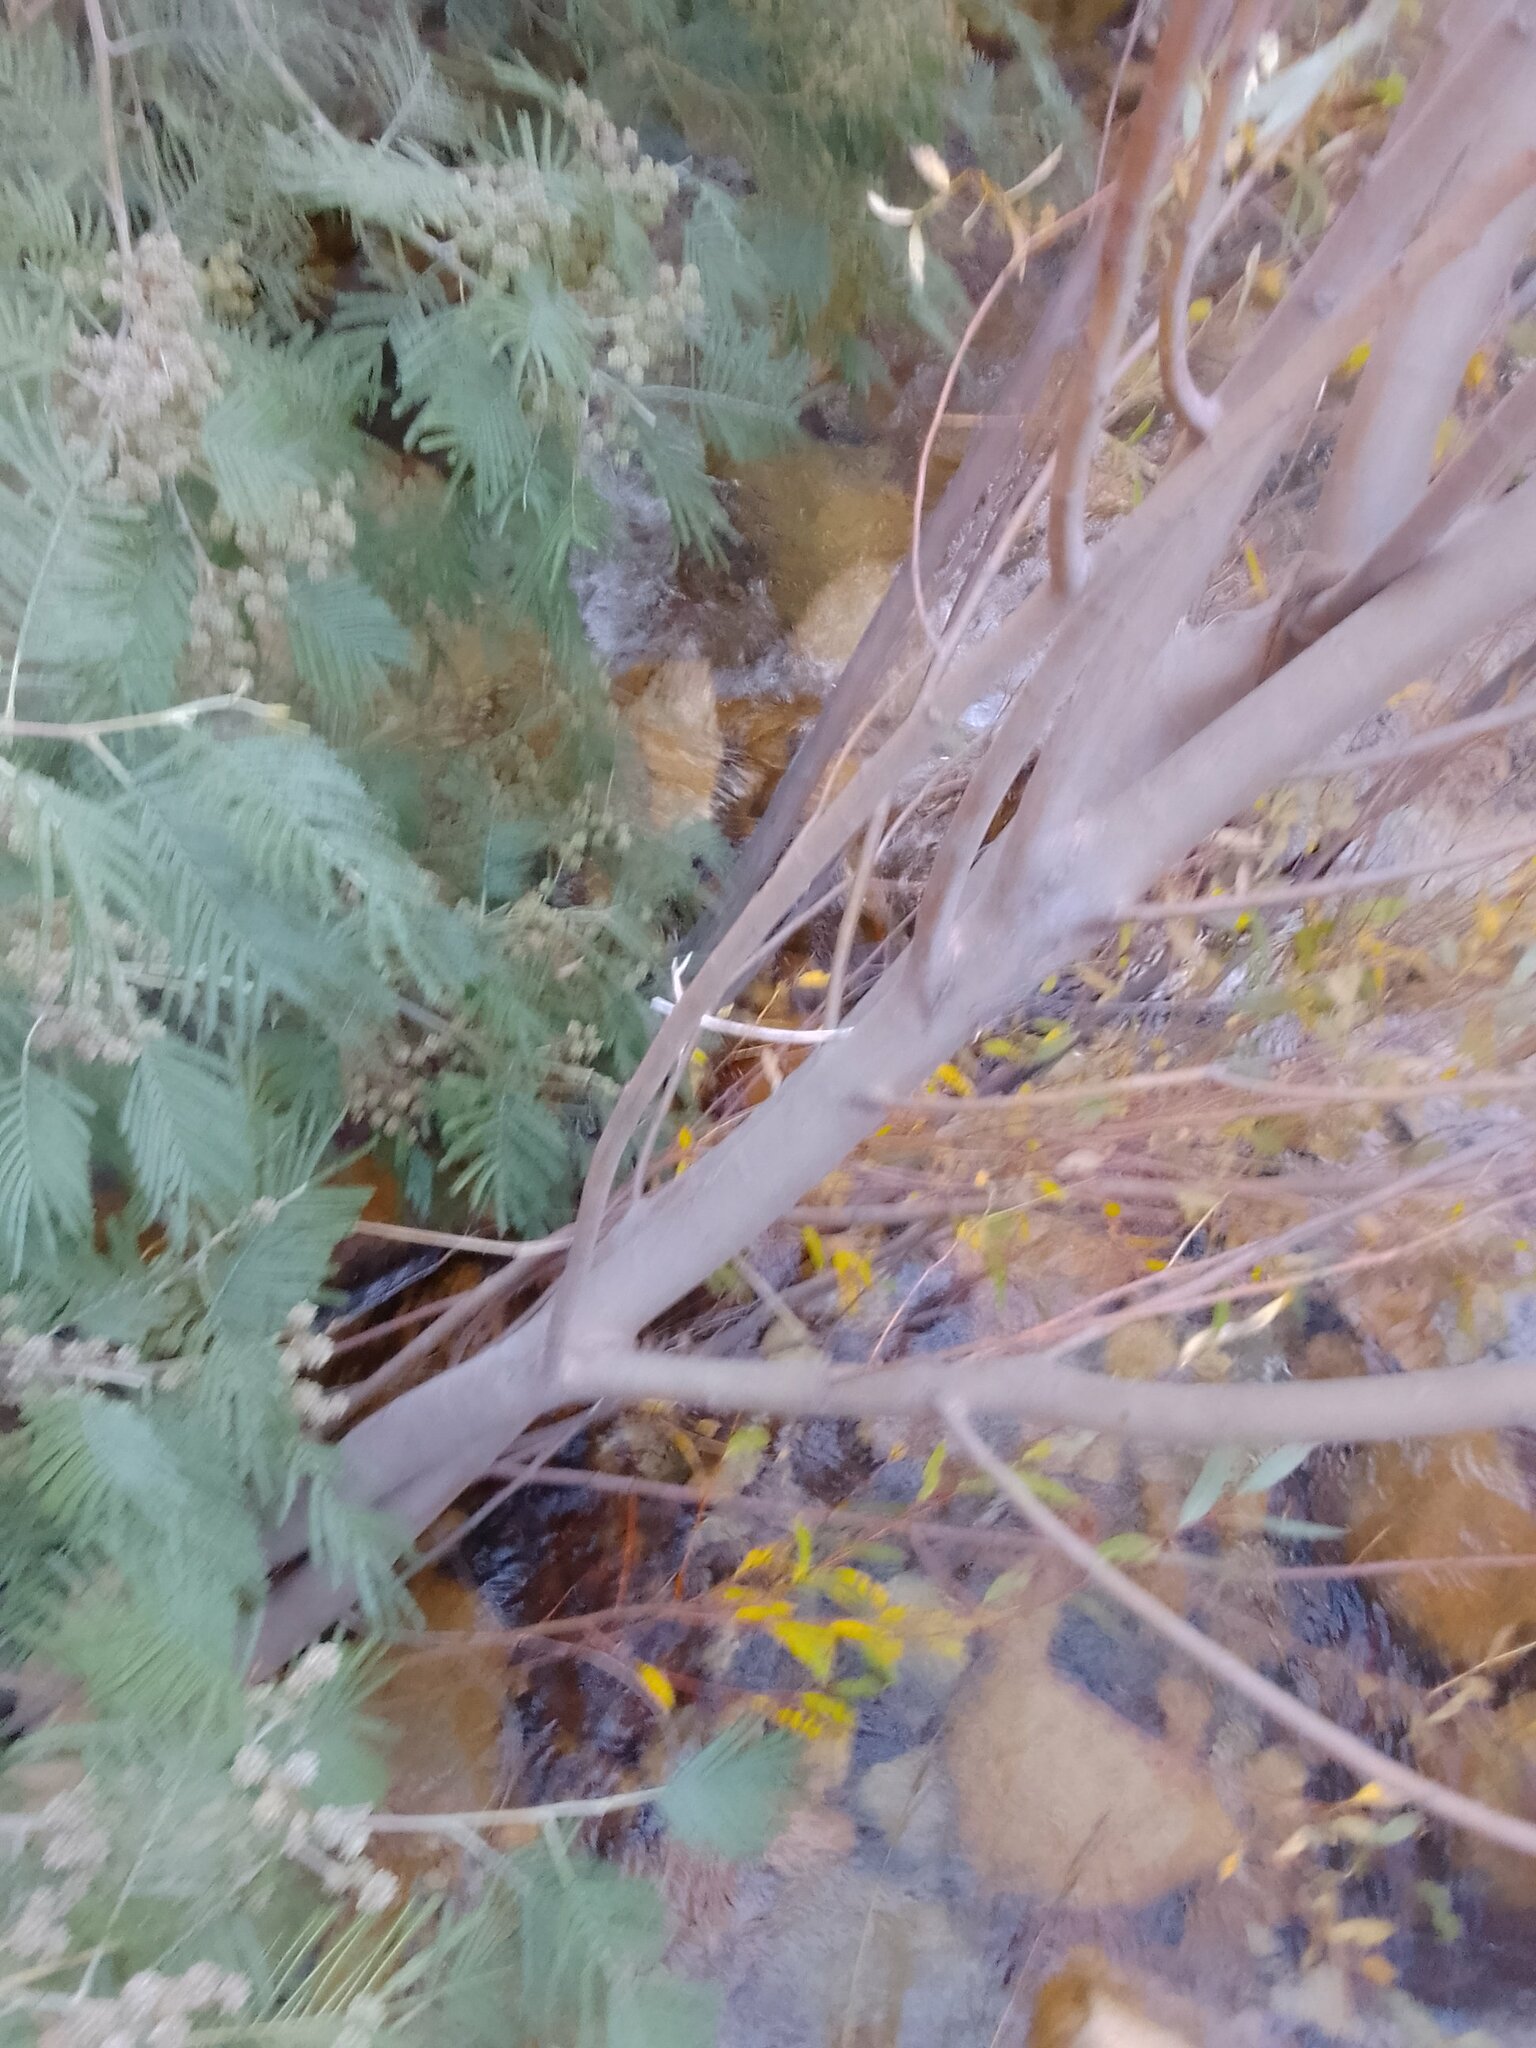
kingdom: Animalia
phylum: Arthropoda
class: Insecta
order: Diptera
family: Cecidomyiidae
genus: Dasineura
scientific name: Dasineura rubiformis
